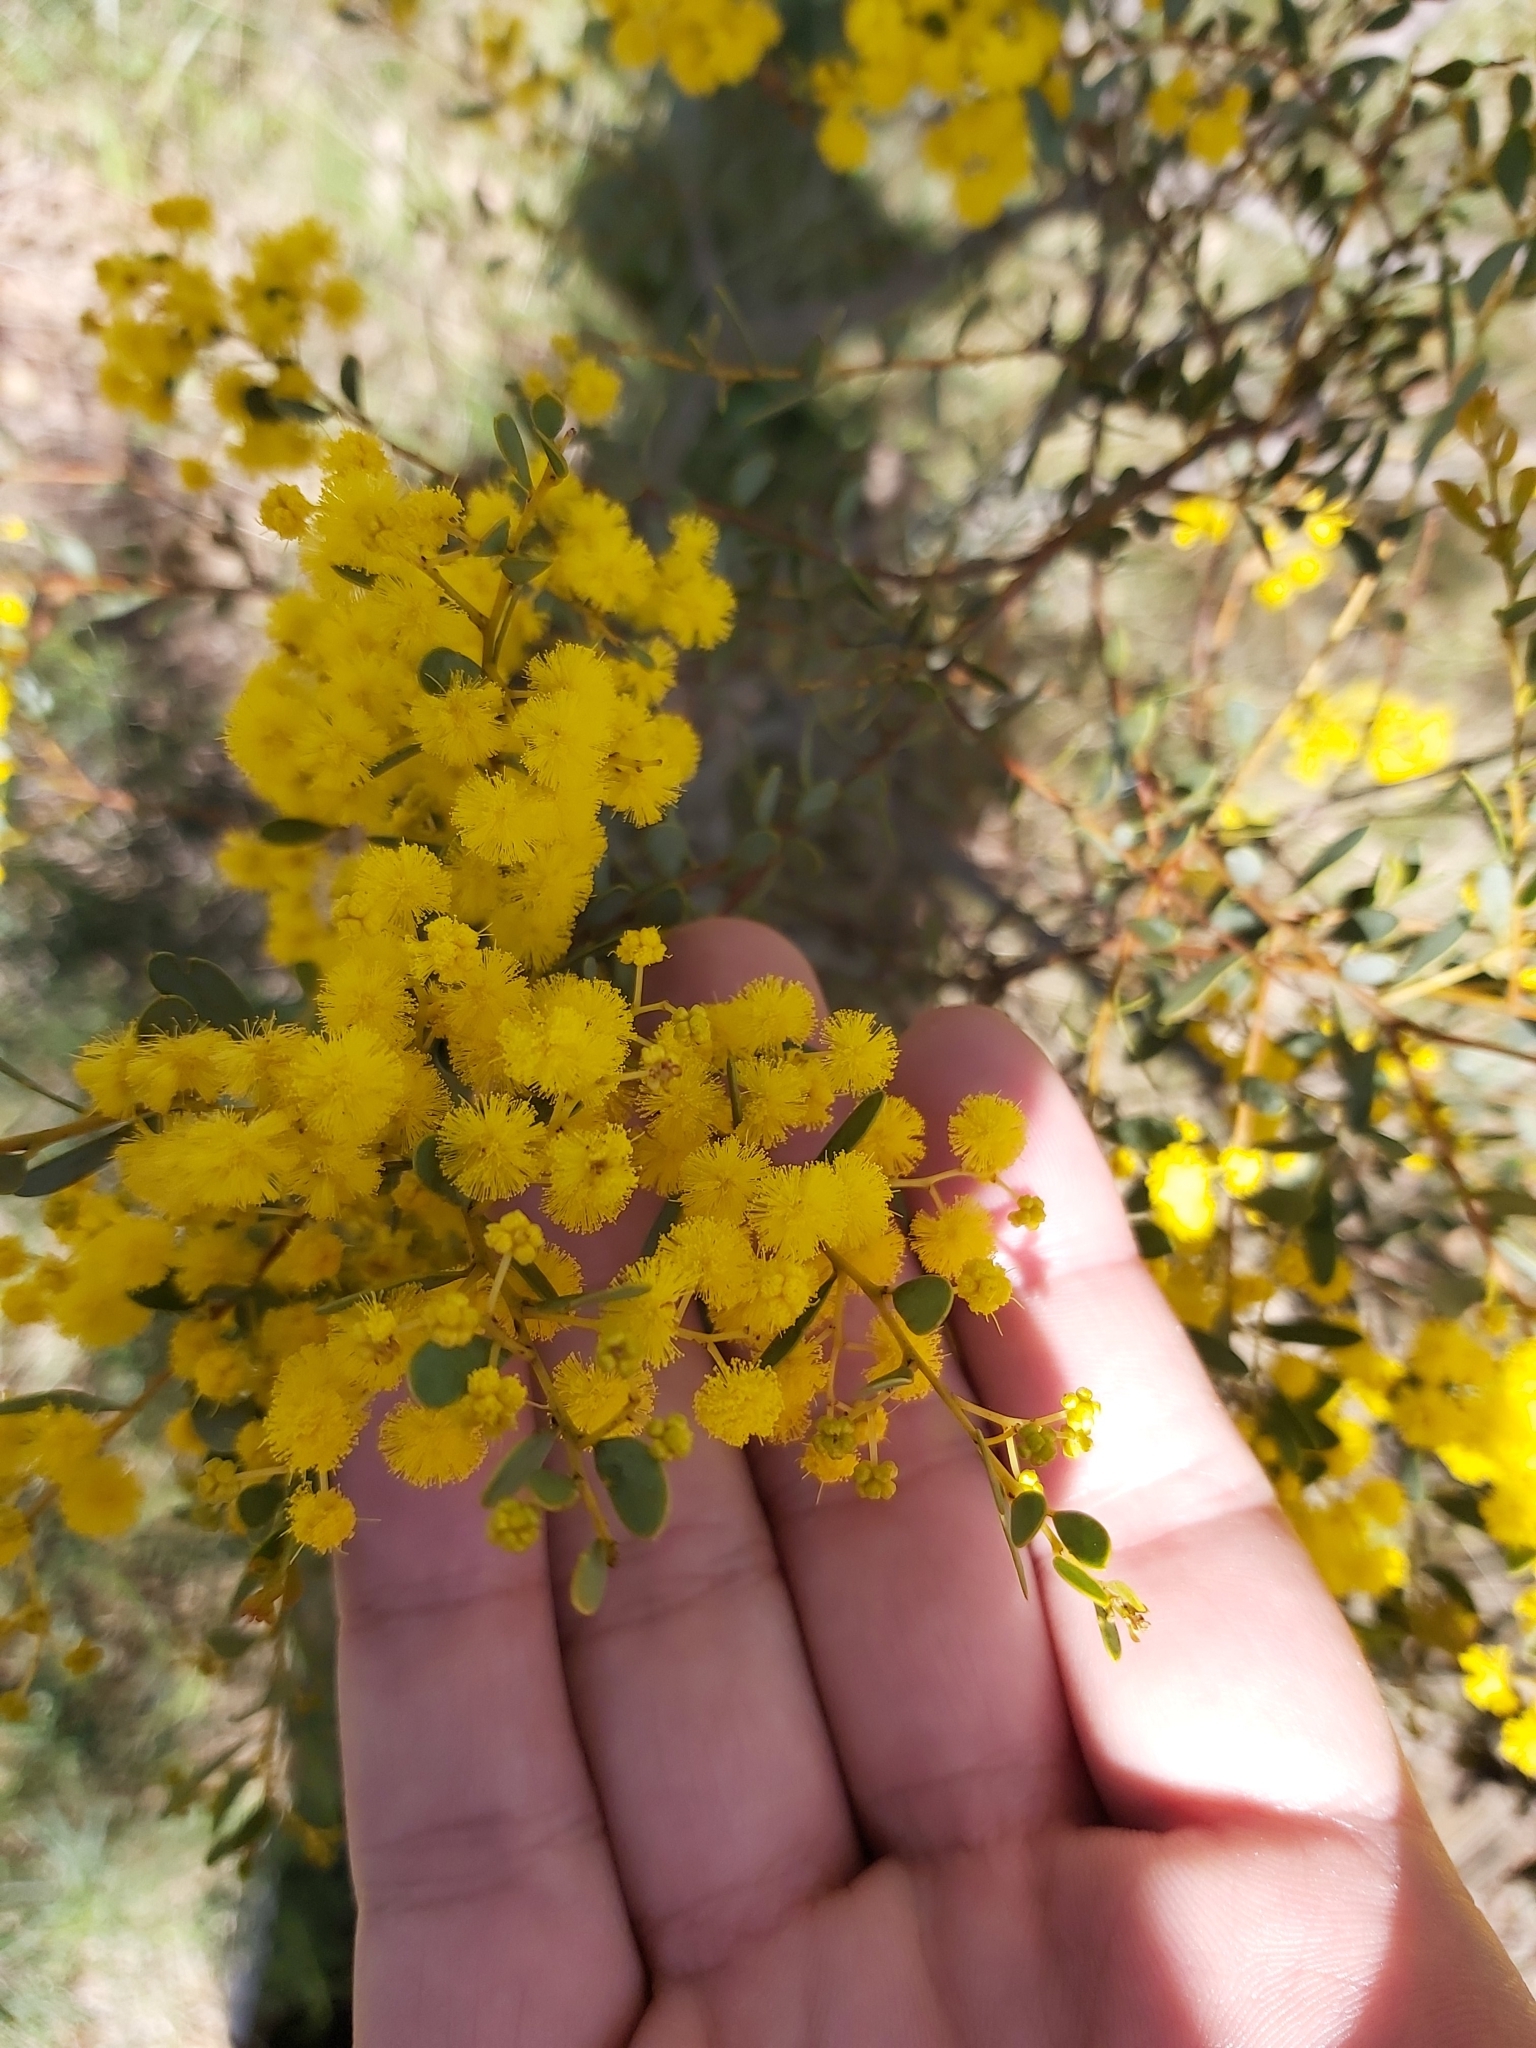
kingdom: Plantae
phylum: Tracheophyta
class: Magnoliopsida
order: Fabales
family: Fabaceae
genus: Acacia
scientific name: Acacia buxifolia
